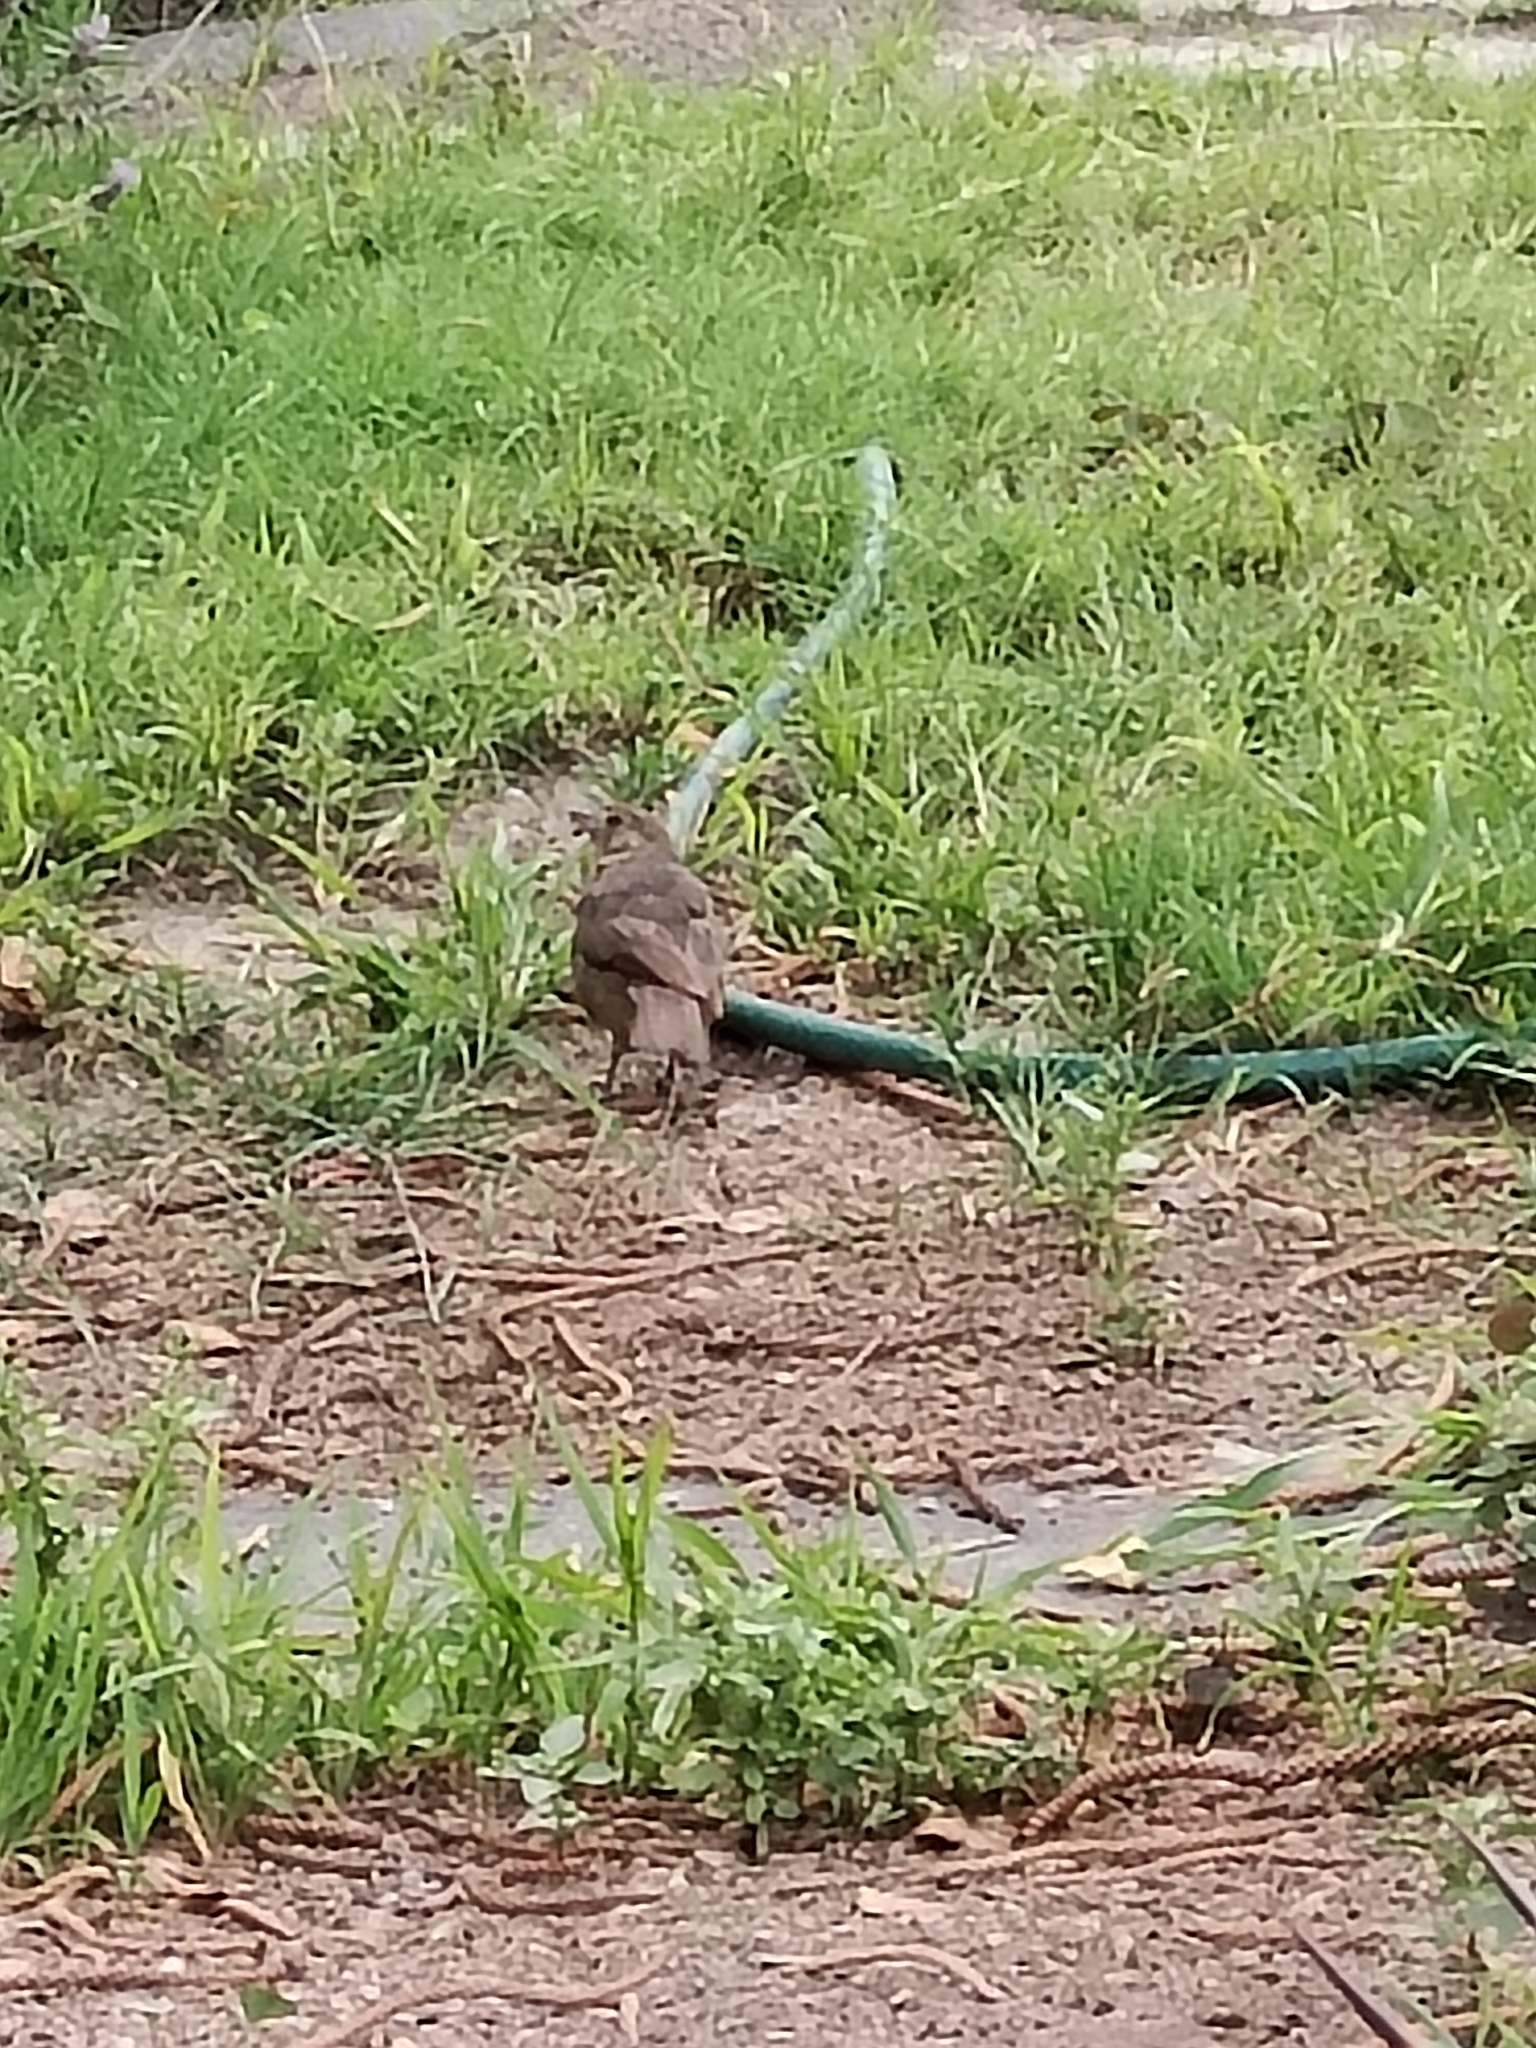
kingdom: Animalia
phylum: Chordata
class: Aves
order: Passeriformes
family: Passerellidae
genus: Melozone
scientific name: Melozone fusca
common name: Canyon towhee
